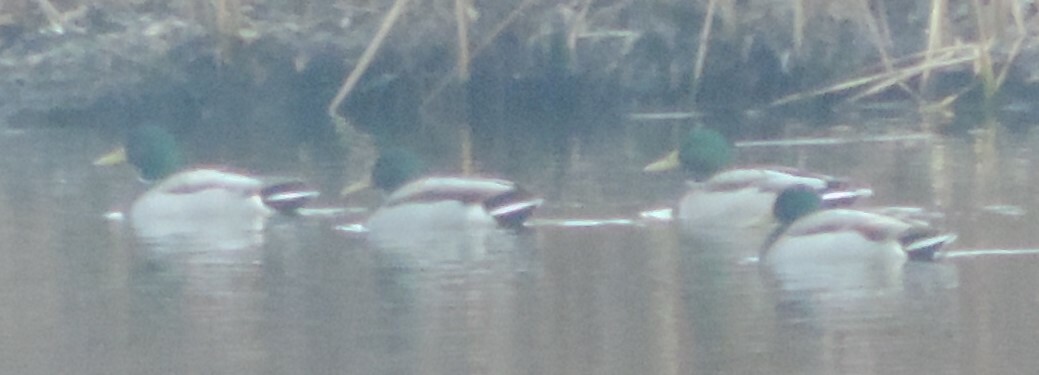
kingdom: Animalia
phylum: Chordata
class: Aves
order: Anseriformes
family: Anatidae
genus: Anas
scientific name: Anas platyrhynchos
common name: Mallard
